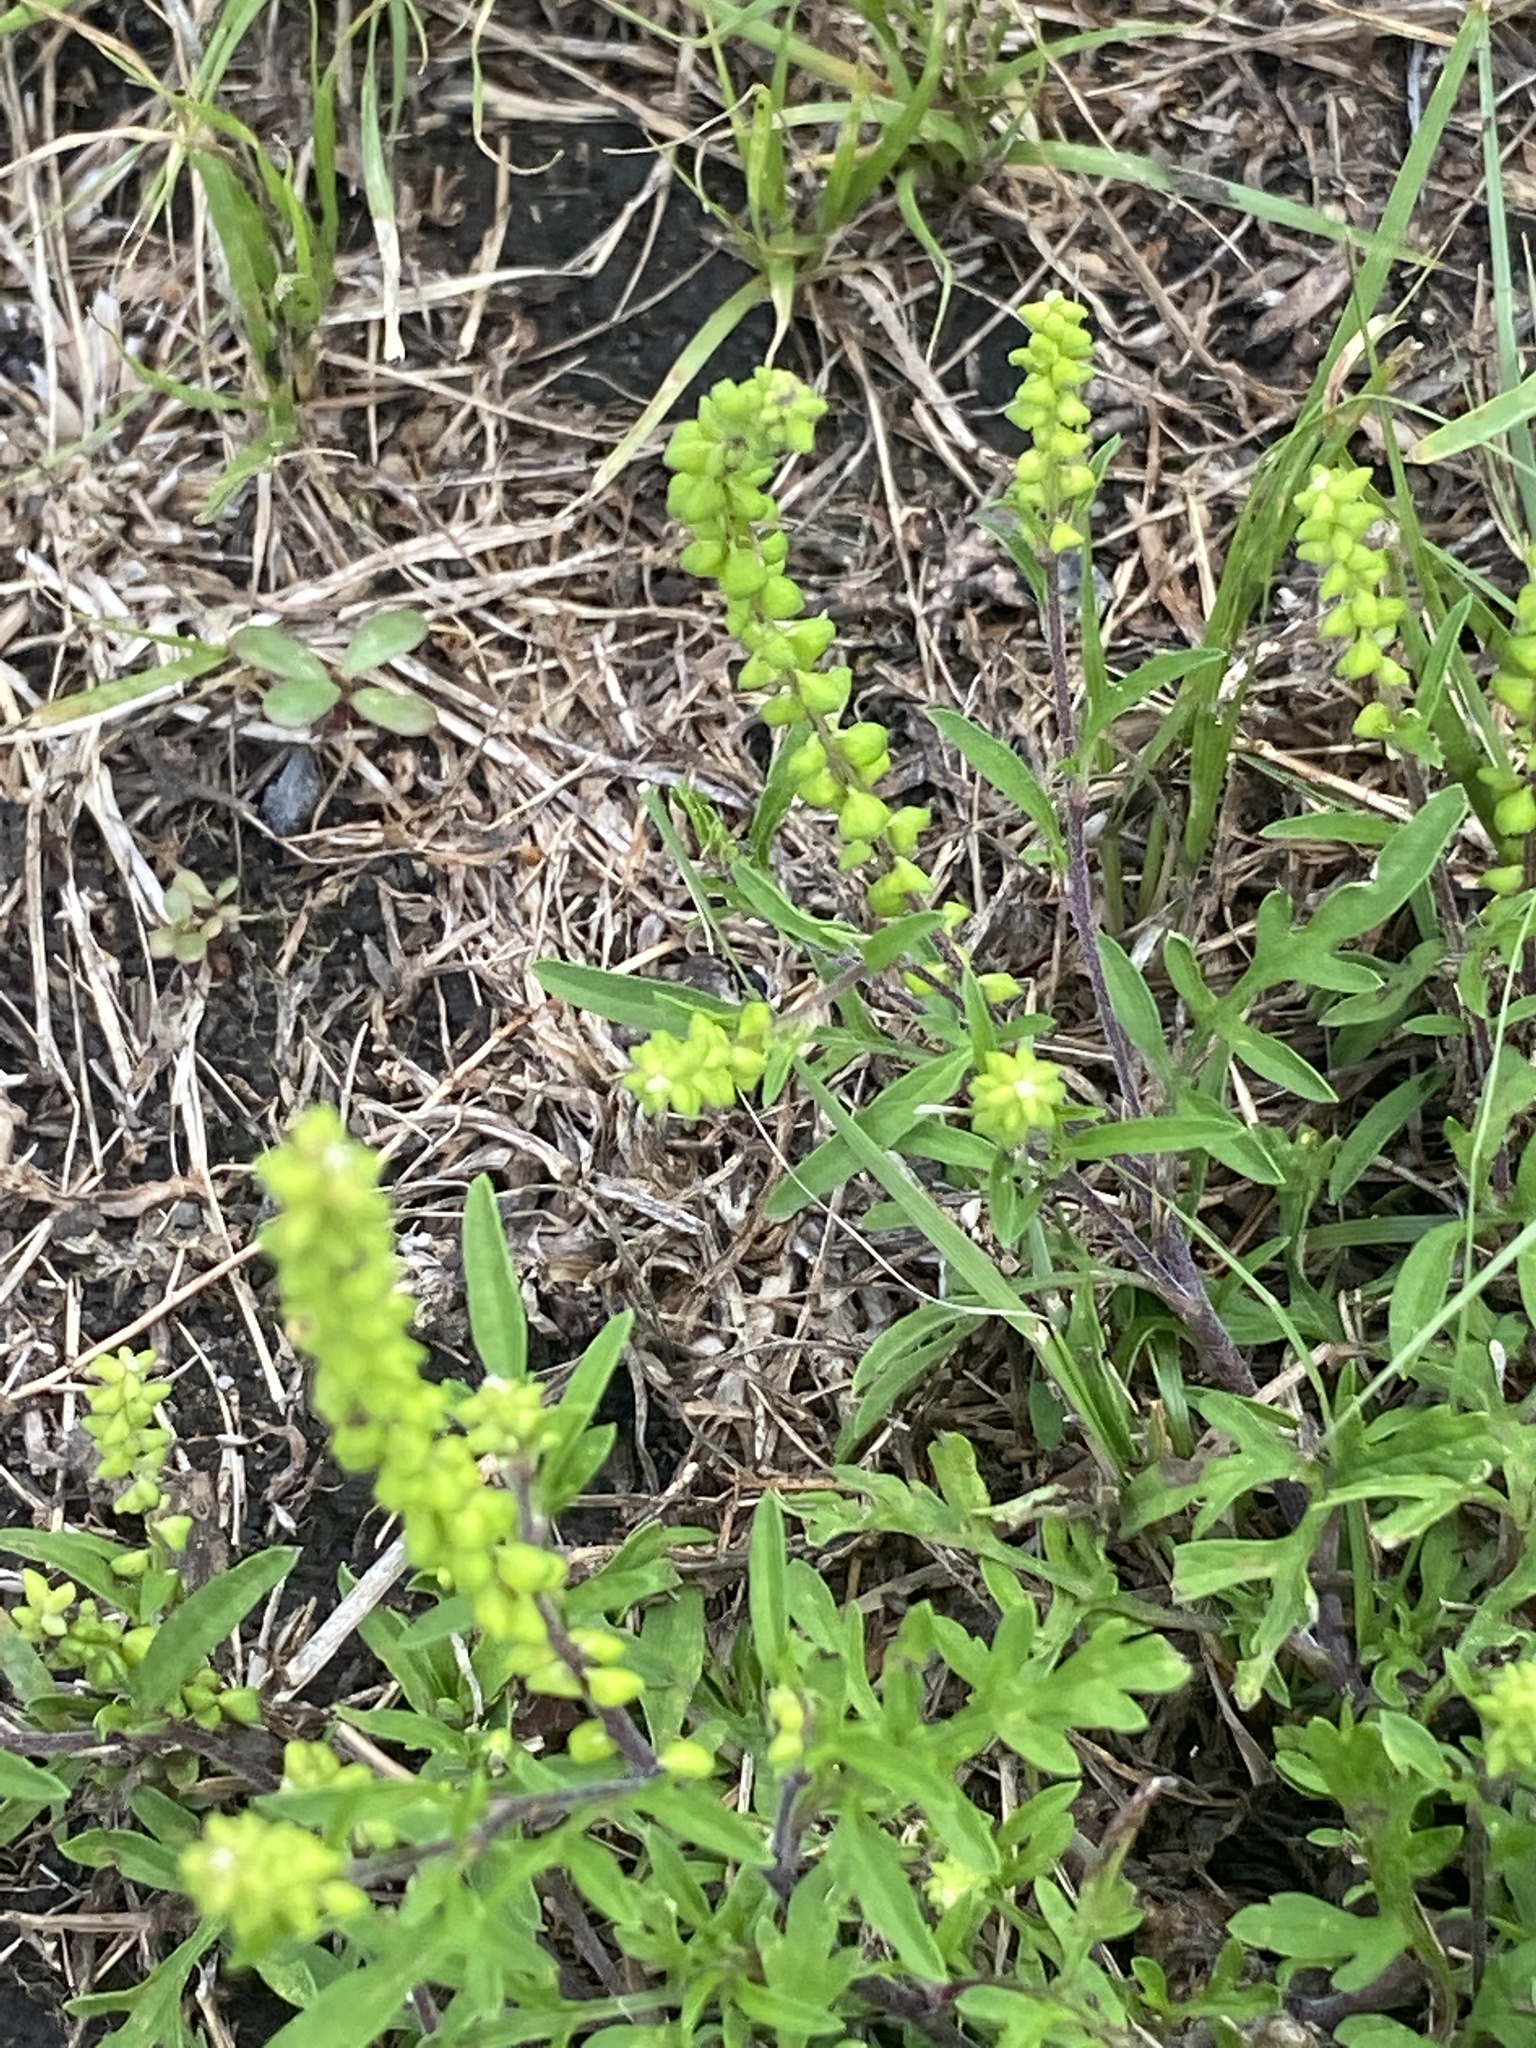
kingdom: Plantae
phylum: Tracheophyta
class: Magnoliopsida
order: Asterales
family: Asteraceae
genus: Ambrosia
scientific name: Ambrosia artemisiifolia
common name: Annual ragweed
